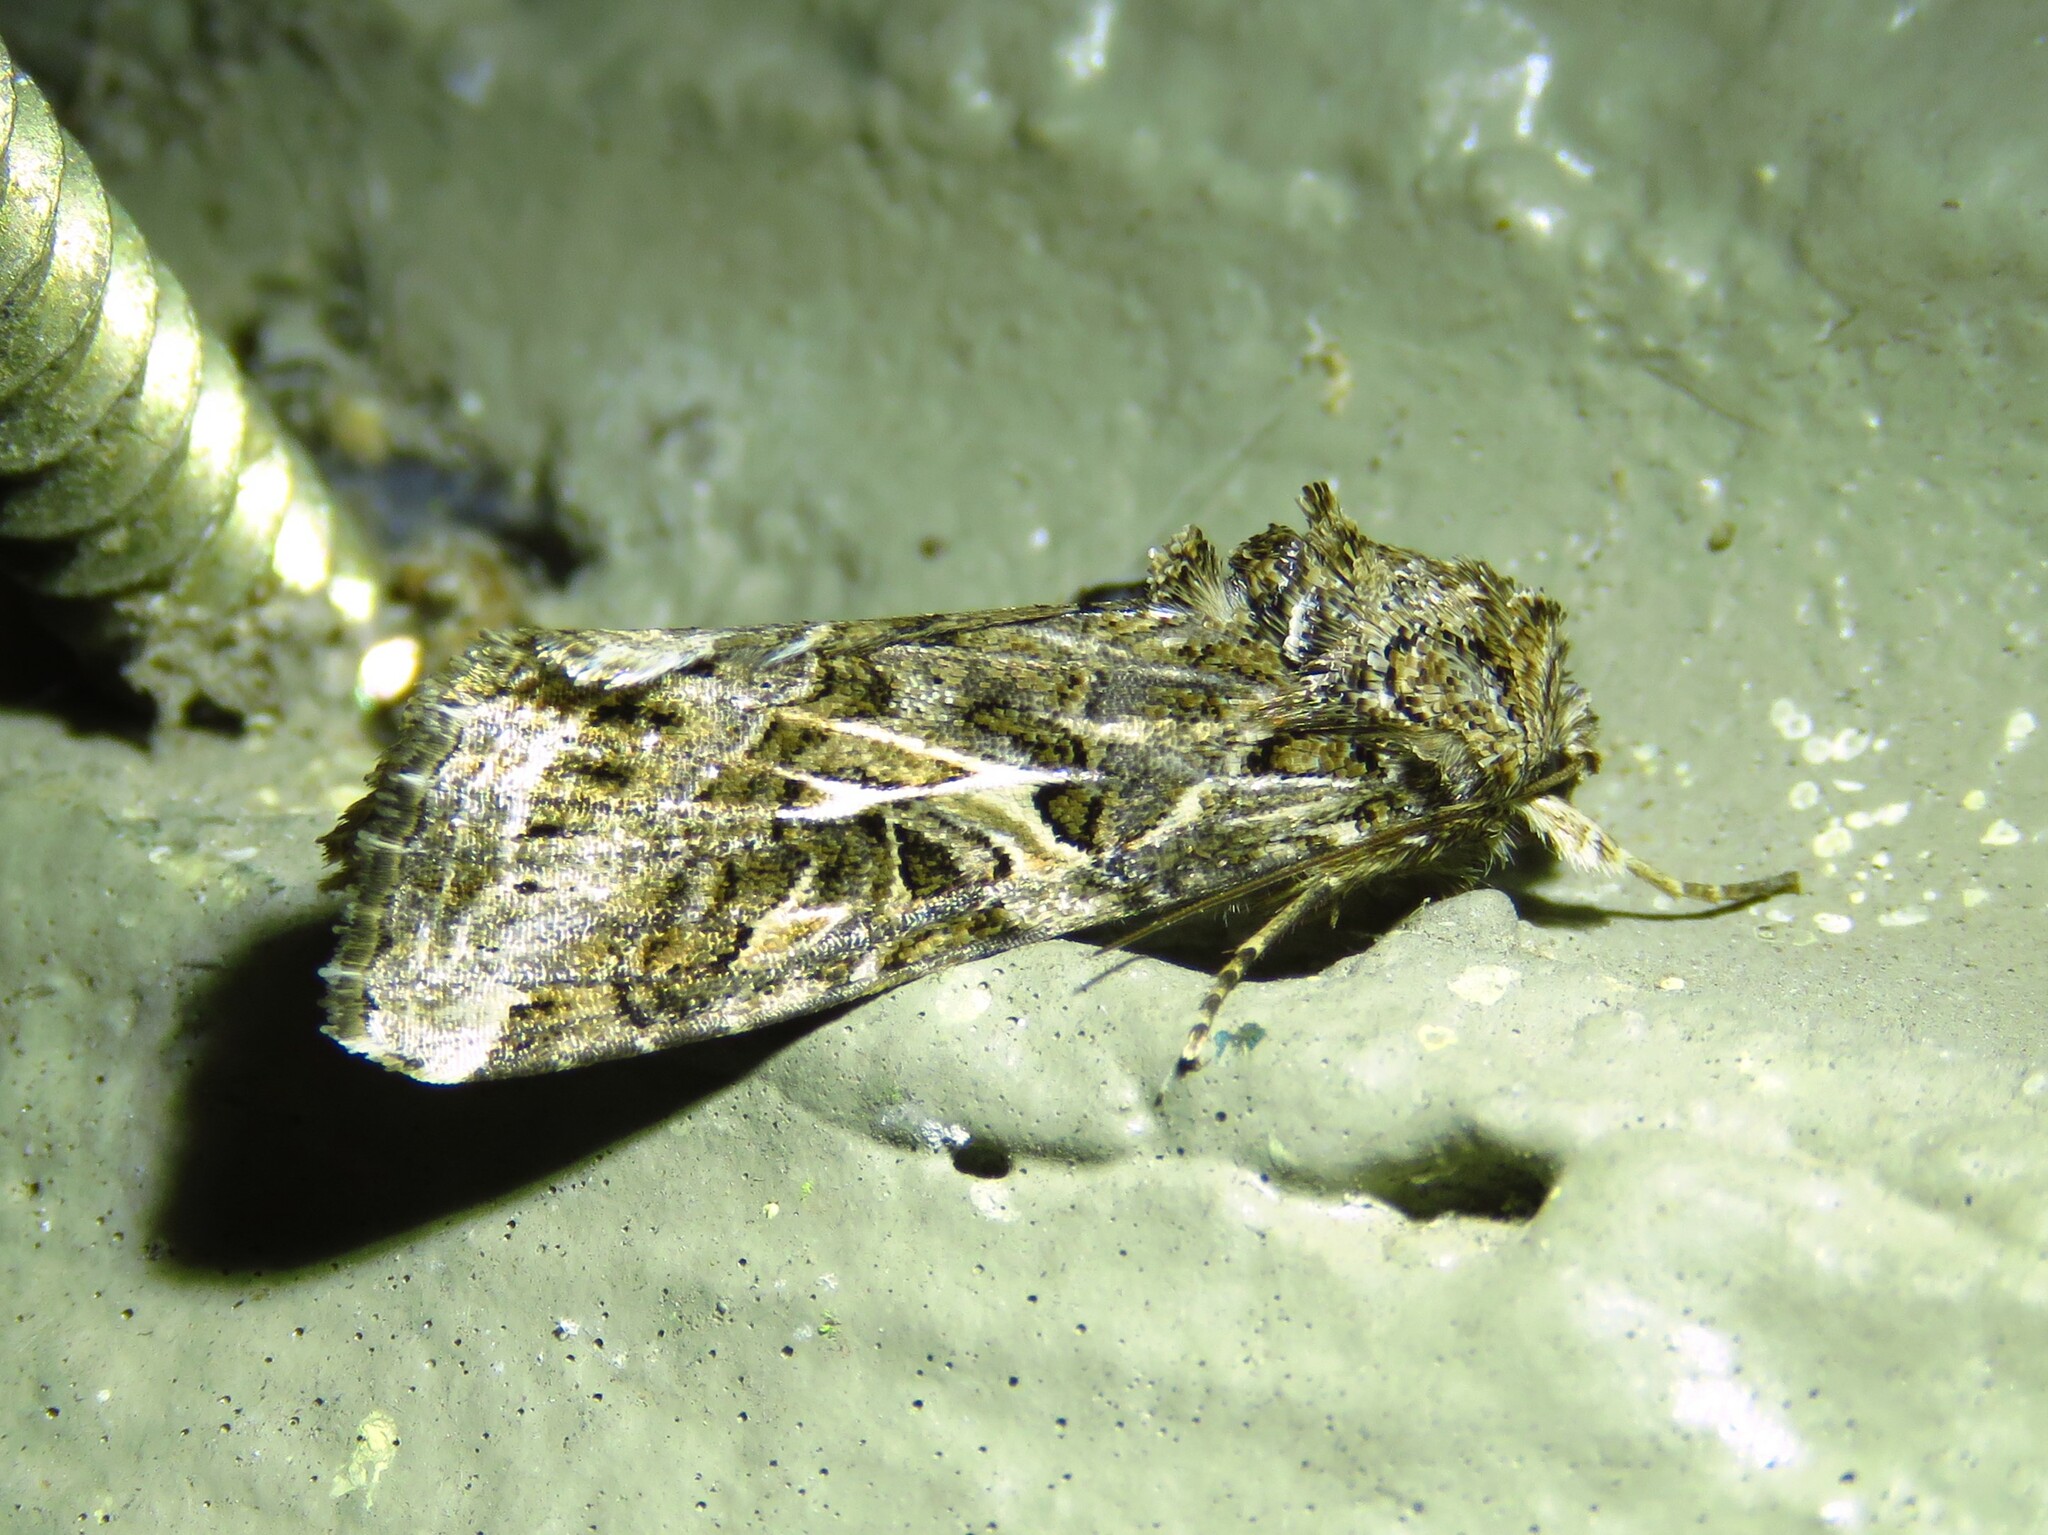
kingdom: Animalia
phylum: Arthropoda
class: Insecta
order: Lepidoptera
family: Noctuidae
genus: Spodoptera
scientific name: Spodoptera ornithogalli
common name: Yellow-striped armyworm
